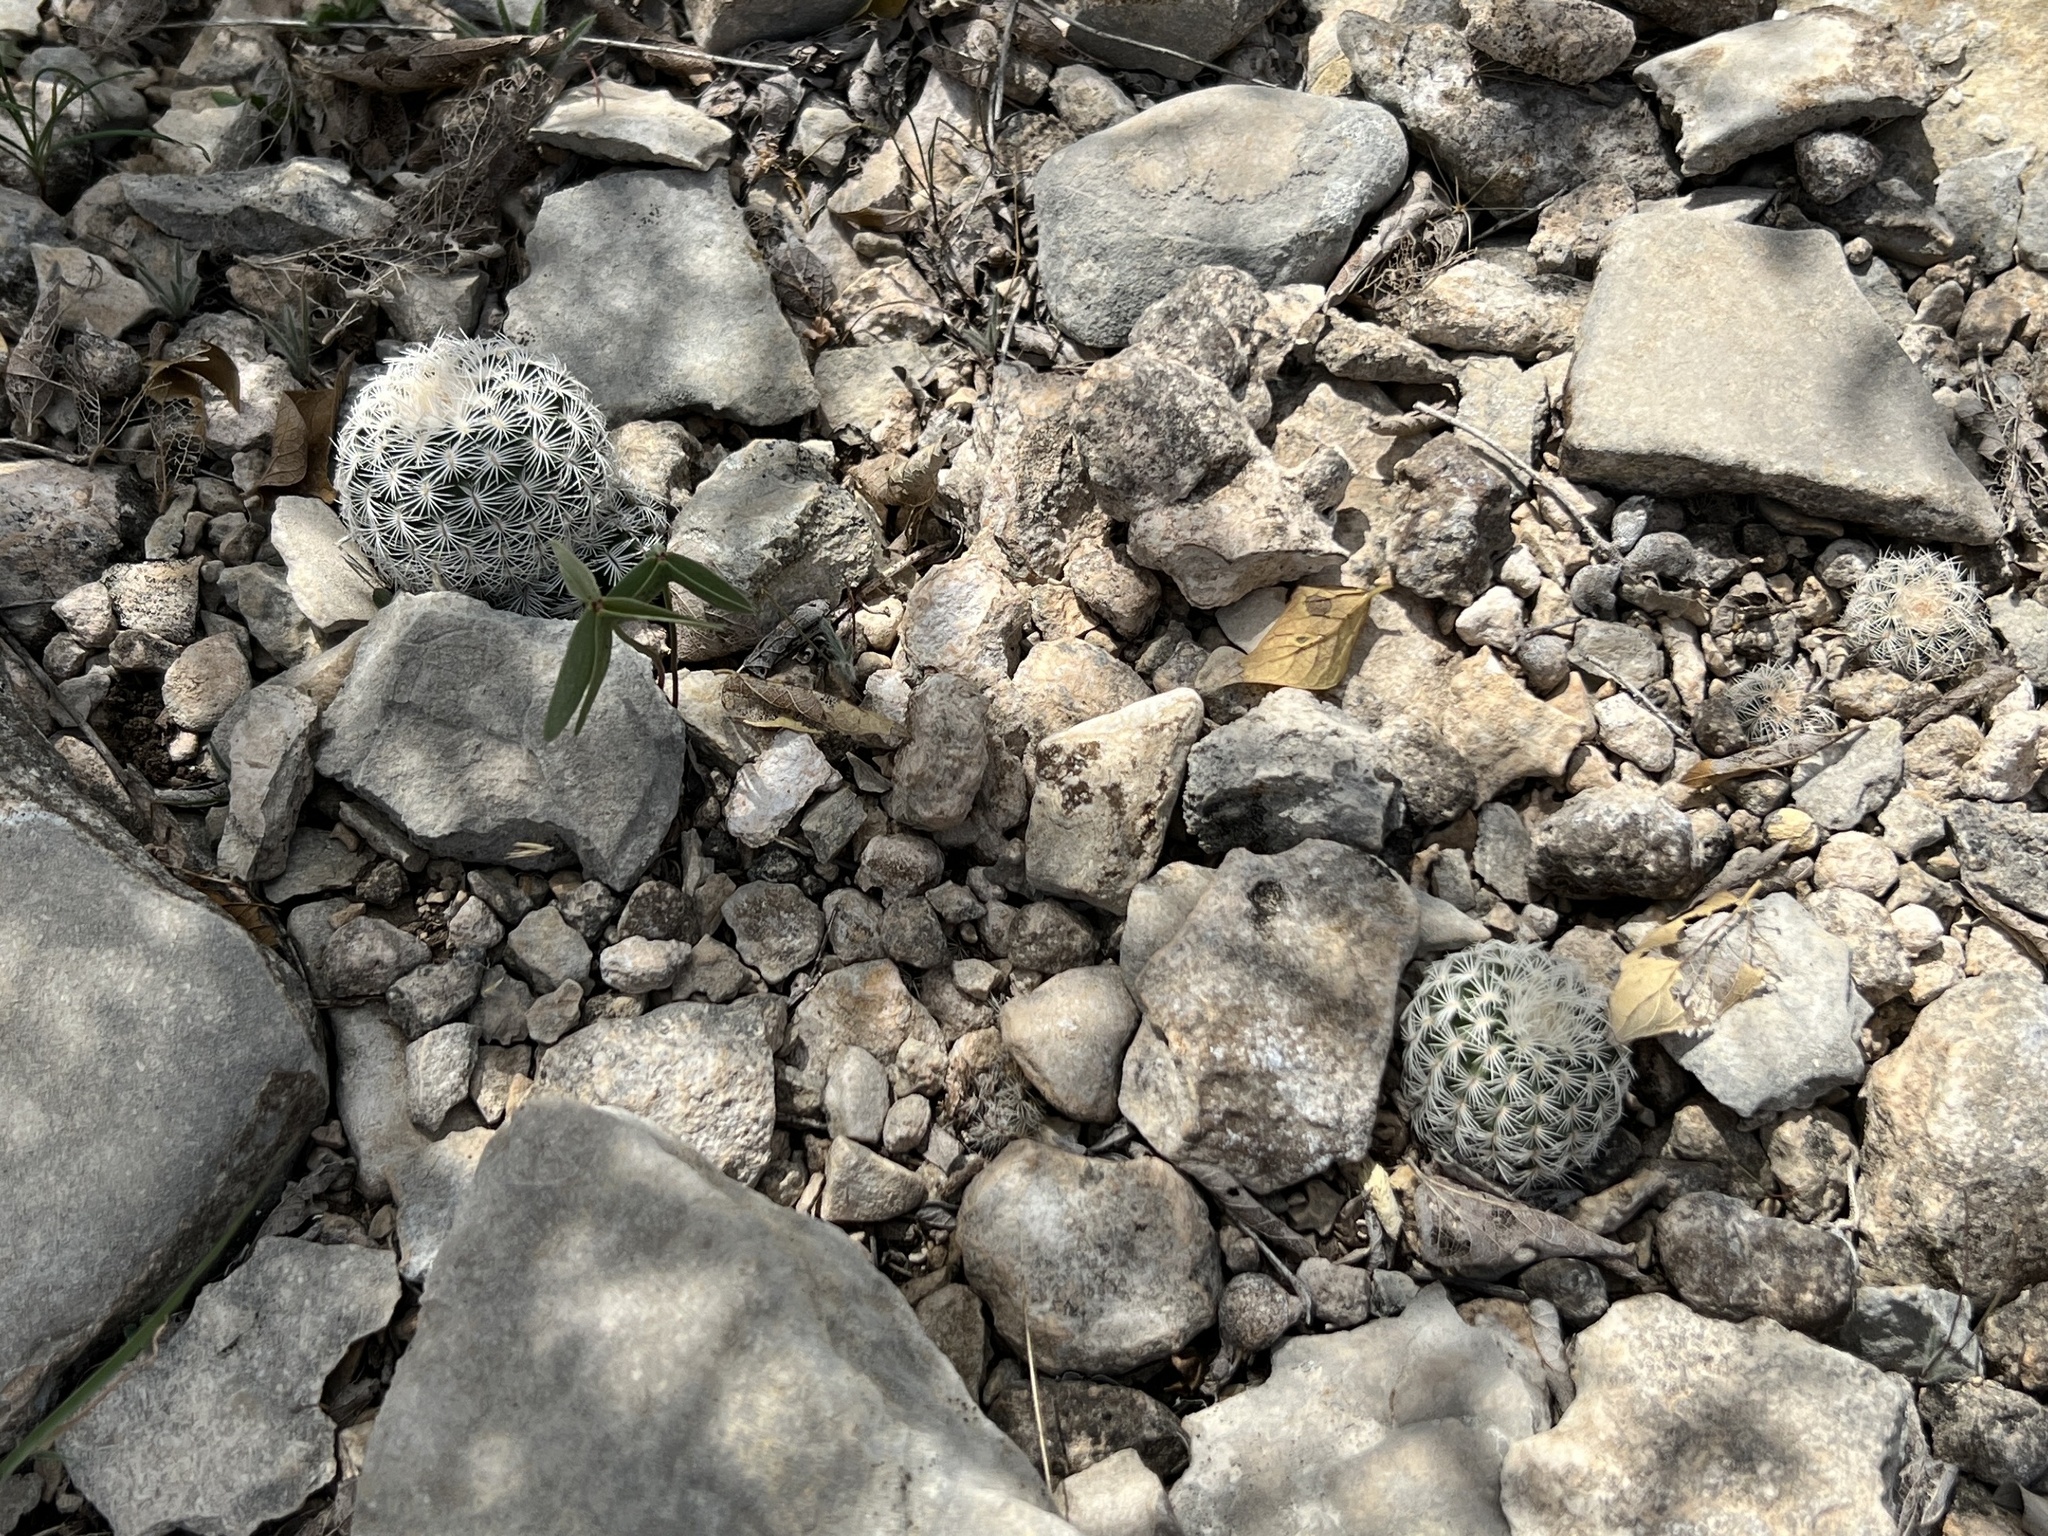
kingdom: Plantae
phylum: Tracheophyta
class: Magnoliopsida
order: Caryophyllales
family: Cactaceae
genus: Echinocereus
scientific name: Echinocereus reichenbachii
